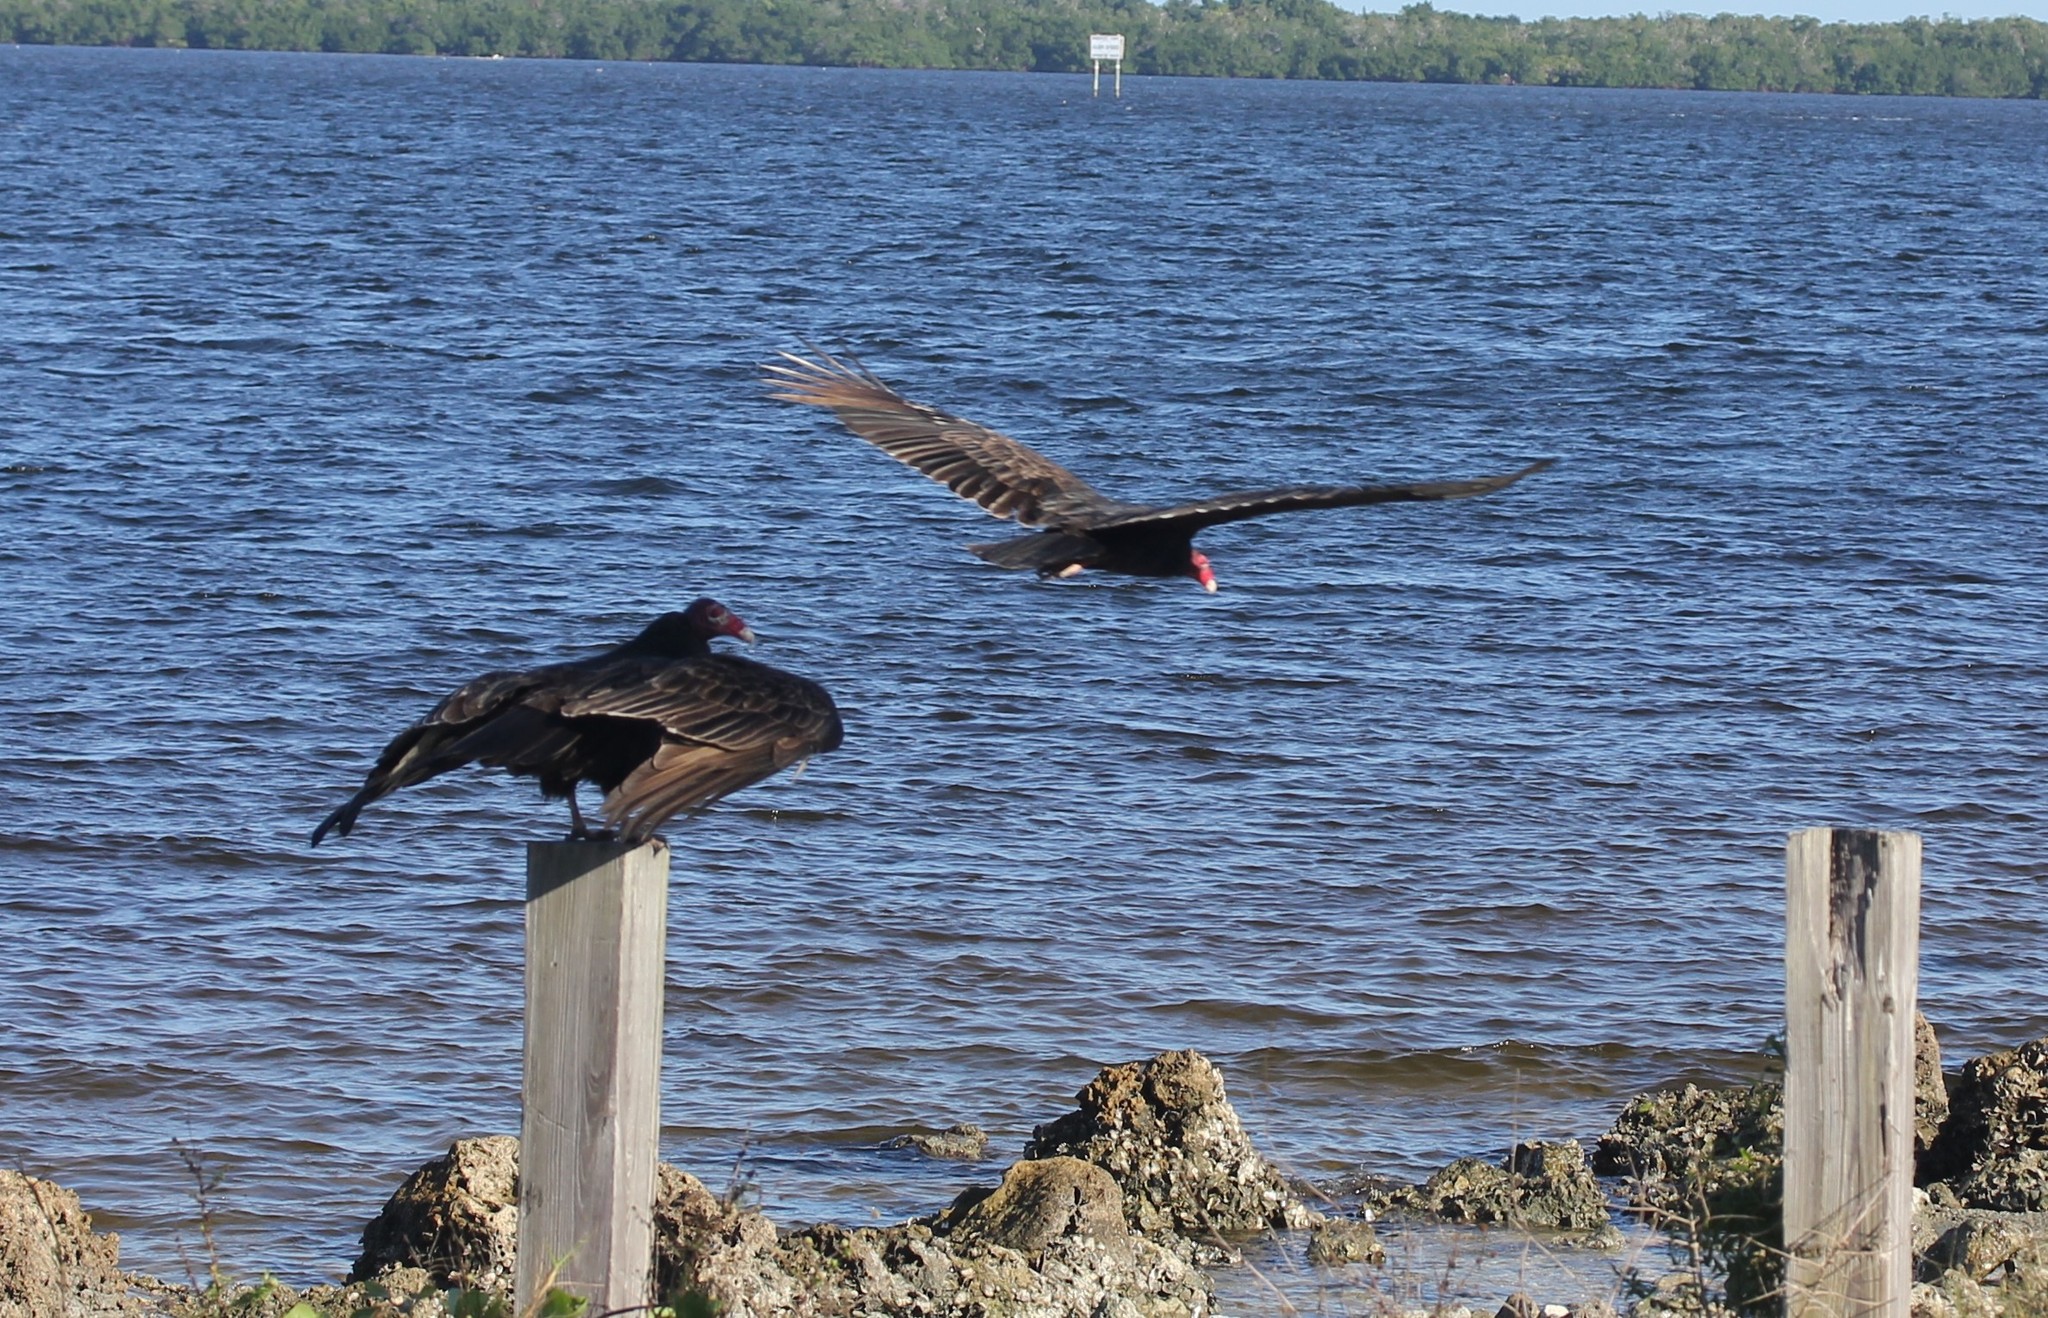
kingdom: Animalia
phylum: Chordata
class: Aves
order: Accipitriformes
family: Cathartidae
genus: Cathartes
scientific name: Cathartes aura
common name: Turkey vulture
